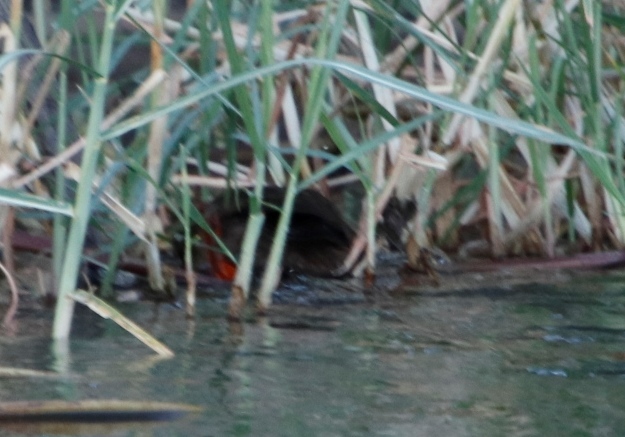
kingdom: Animalia
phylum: Chordata
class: Aves
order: Gruiformes
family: Heliornithidae
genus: Podica
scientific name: Podica senegalensis
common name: African finfoot
